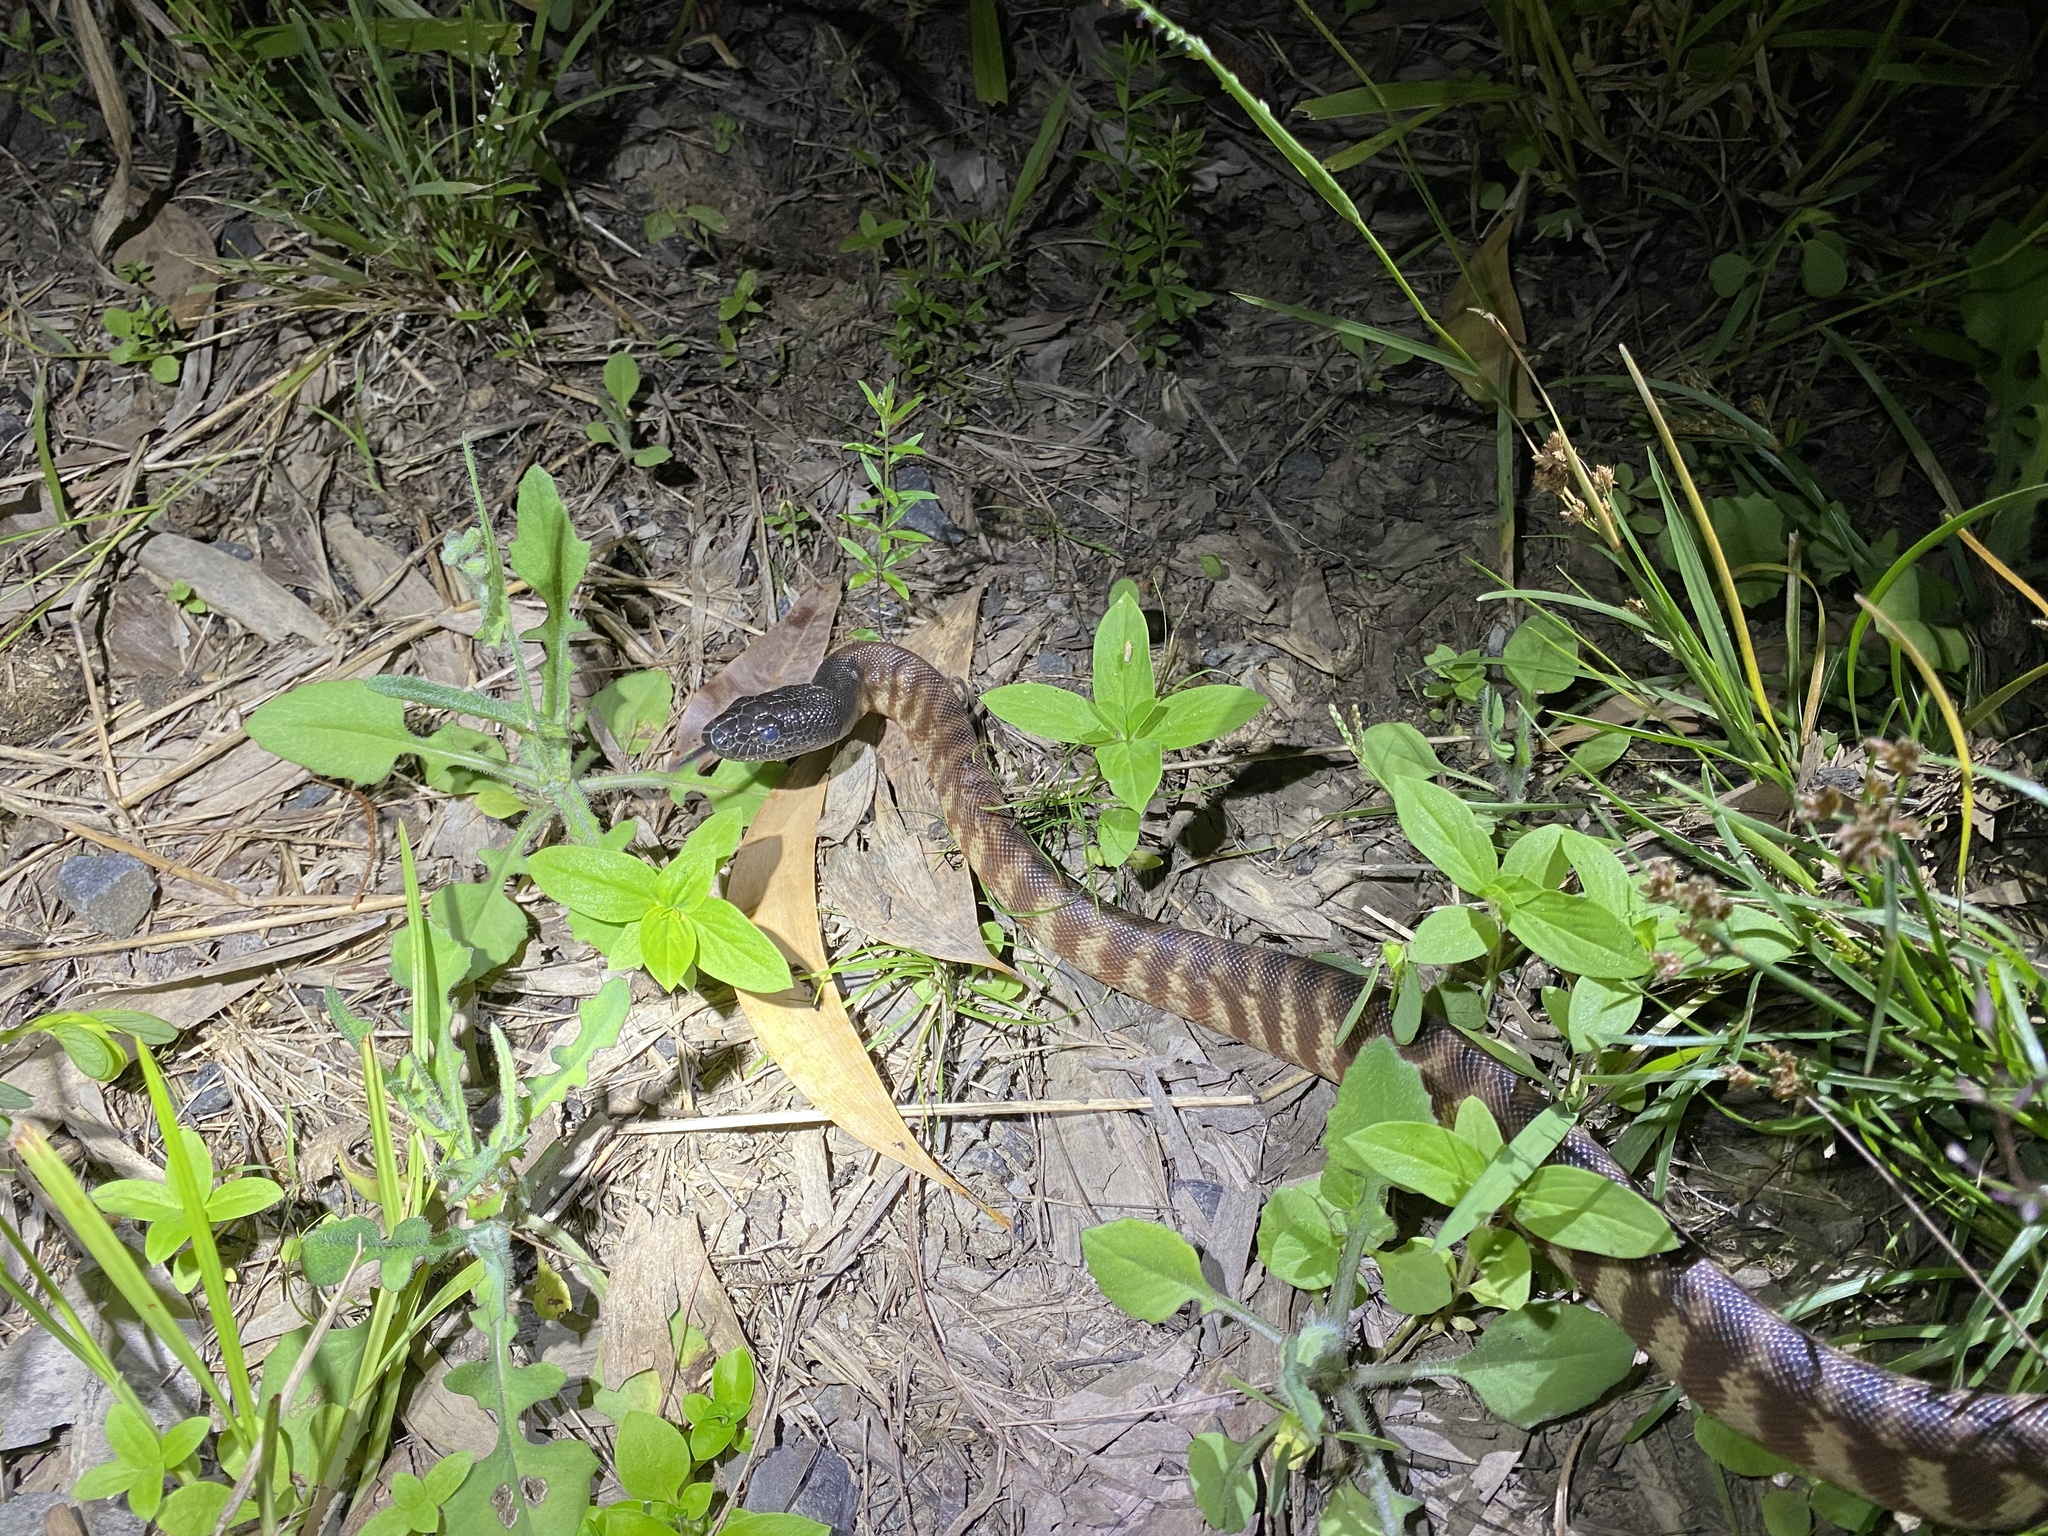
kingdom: Animalia
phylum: Chordata
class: Squamata
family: Pythonidae
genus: Aspidites
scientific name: Aspidites melanocephalus
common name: Black-headed python
